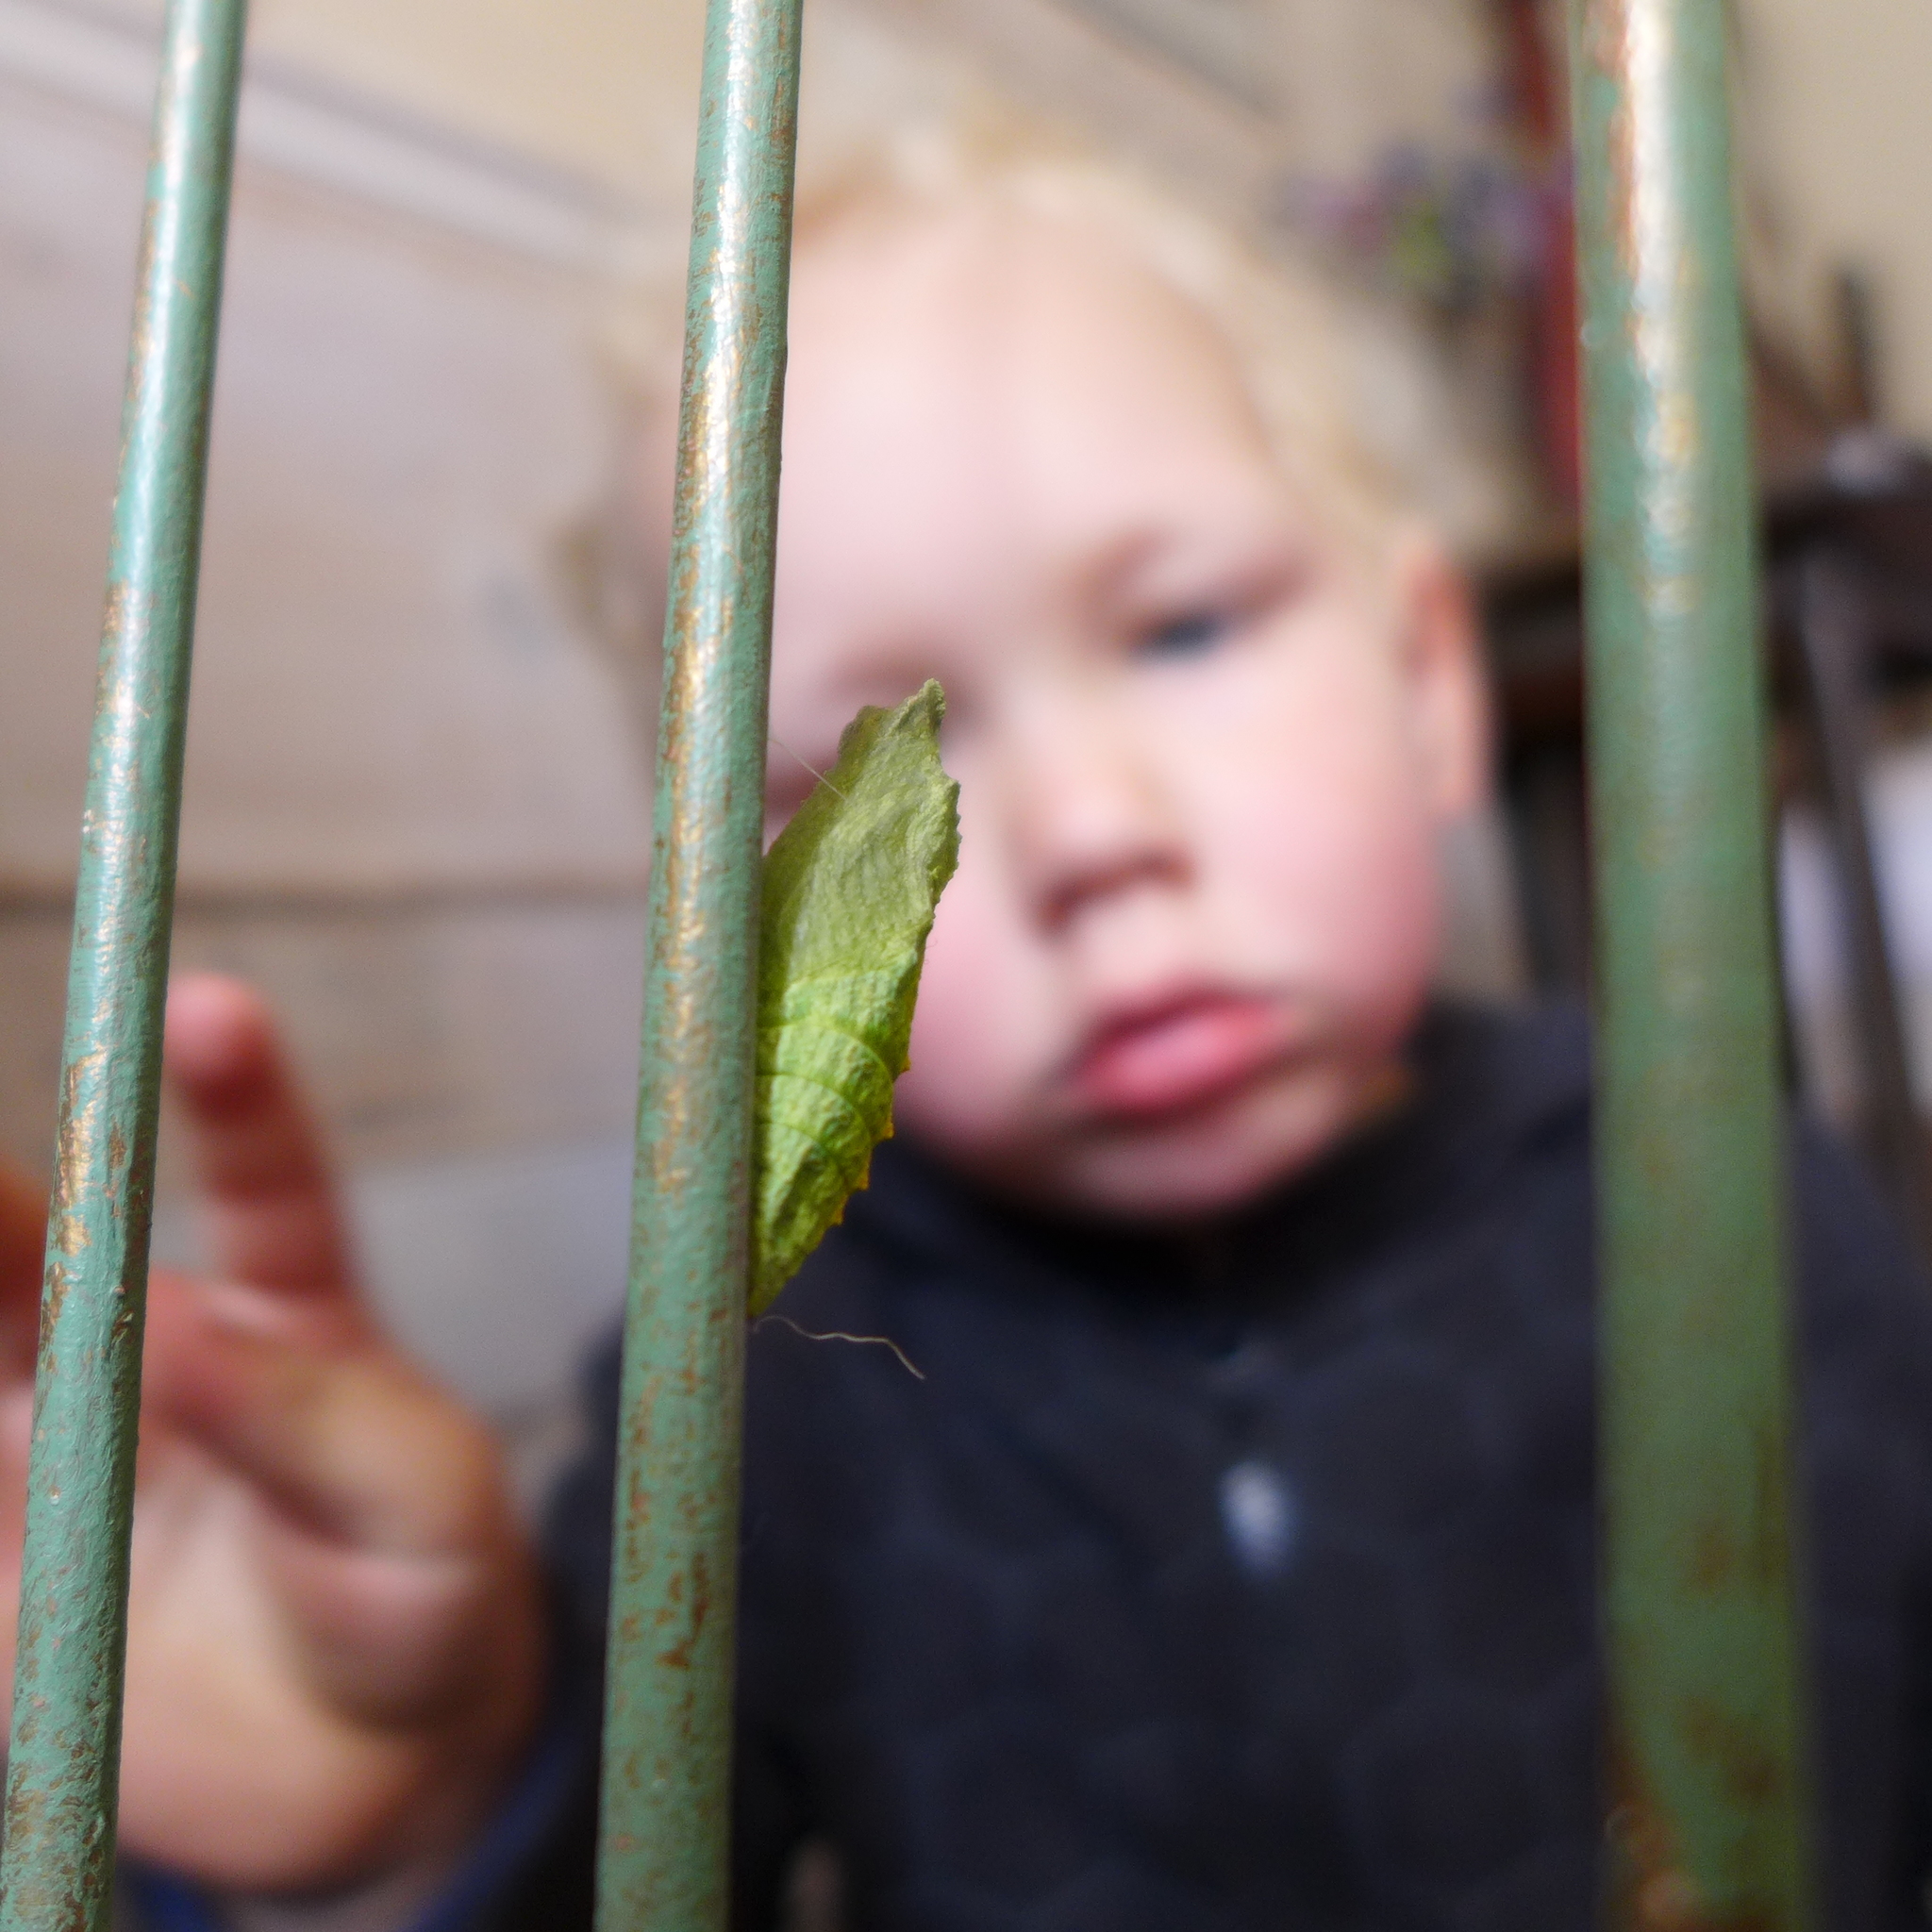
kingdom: Animalia
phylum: Arthropoda
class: Insecta
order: Lepidoptera
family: Papilionidae
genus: Papilio
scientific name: Papilio zelicaon
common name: Anise swallowtail
